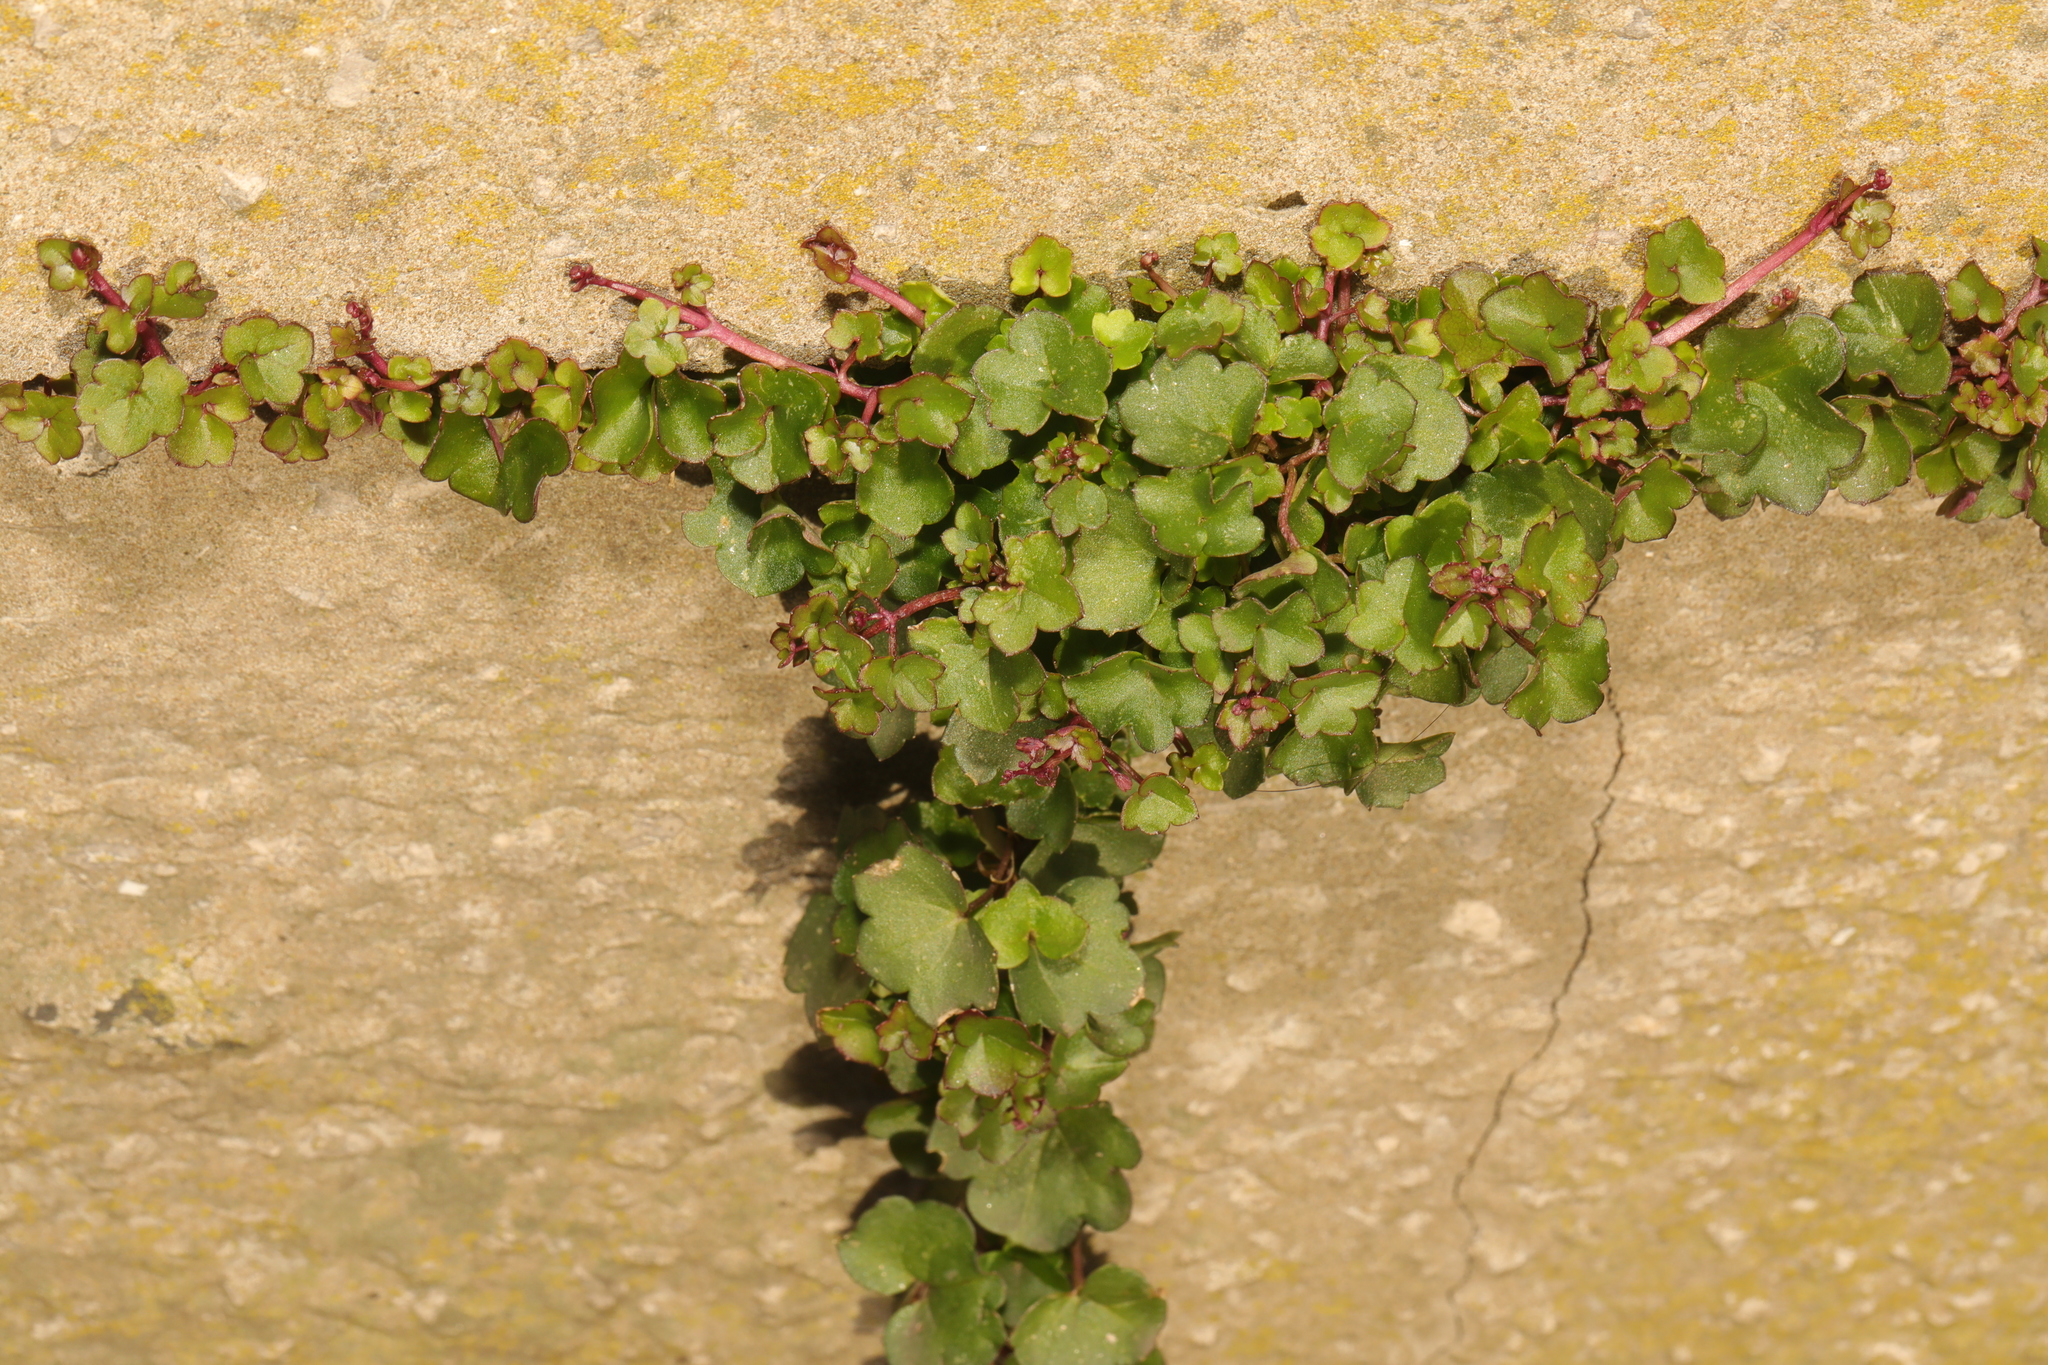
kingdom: Plantae
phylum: Tracheophyta
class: Magnoliopsida
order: Lamiales
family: Plantaginaceae
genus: Cymbalaria
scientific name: Cymbalaria muralis
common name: Ivy-leaved toadflax
